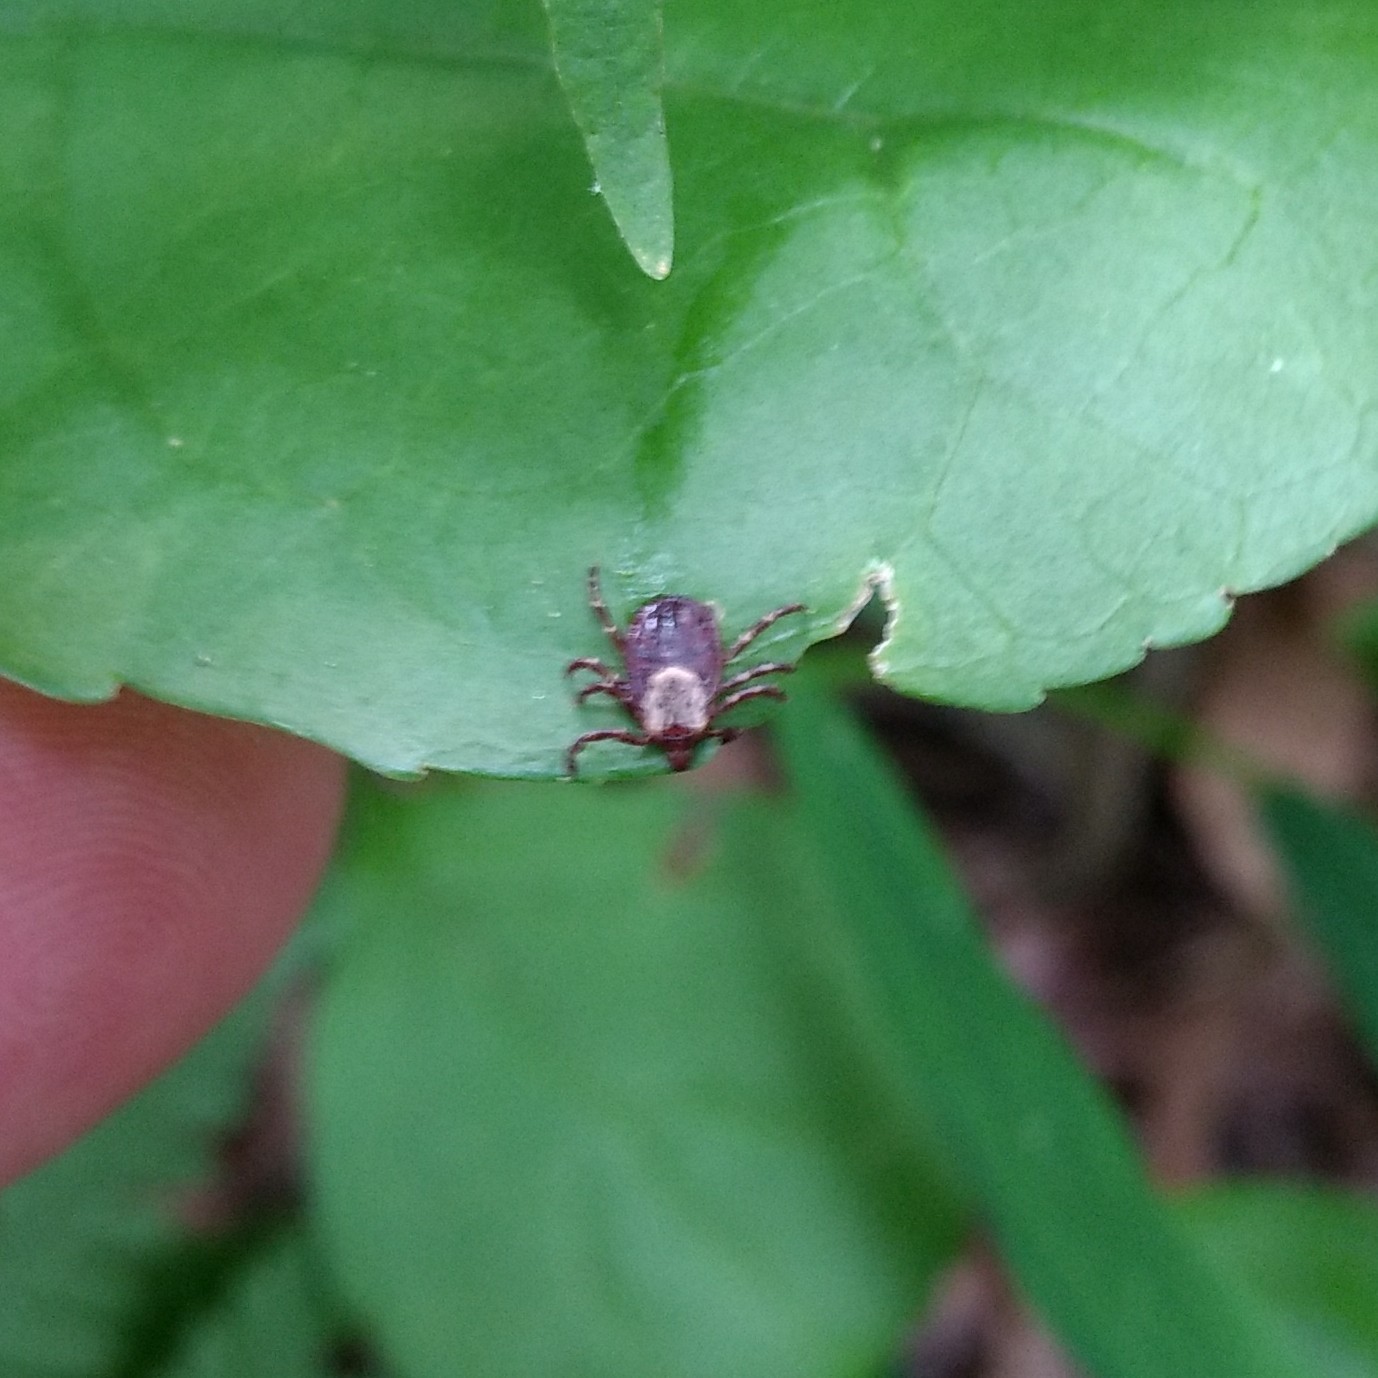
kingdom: Animalia
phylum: Arthropoda
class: Arachnida
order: Ixodida
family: Ixodidae
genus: Dermacentor
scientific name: Dermacentor variabilis
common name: American dog tick
